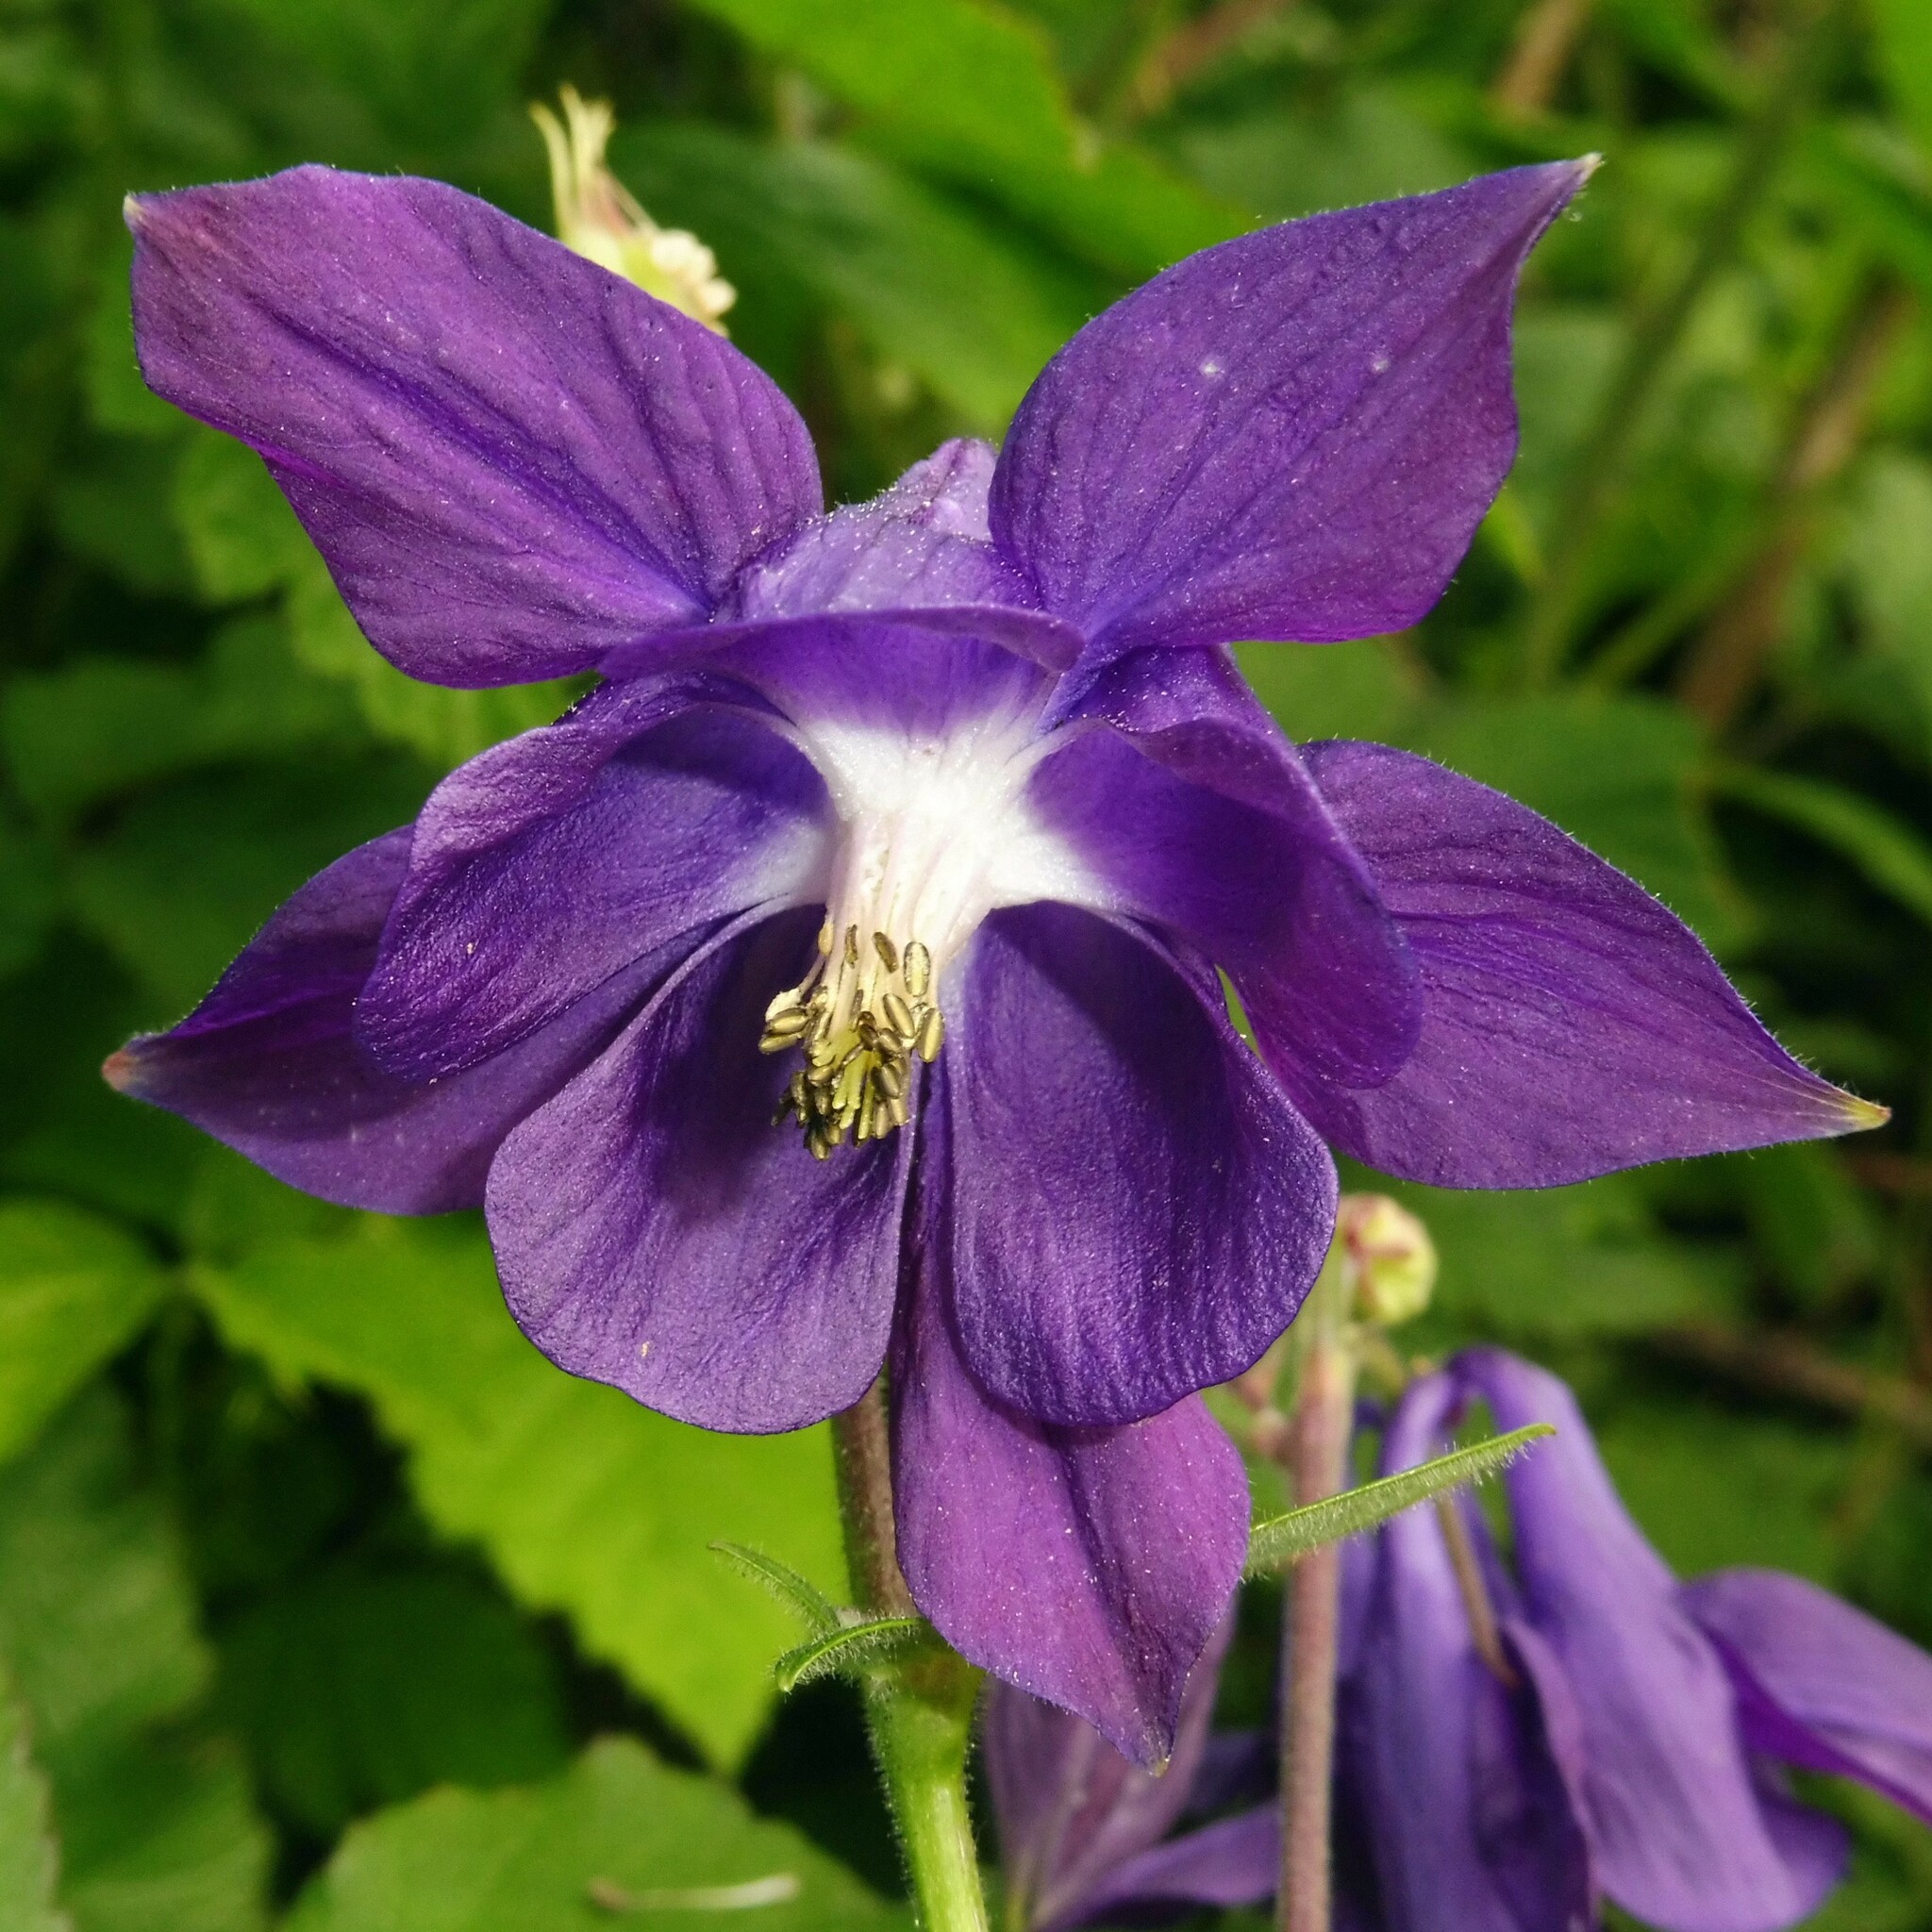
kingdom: Plantae
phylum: Tracheophyta
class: Magnoliopsida
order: Ranunculales
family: Ranunculaceae
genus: Aquilegia
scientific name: Aquilegia
